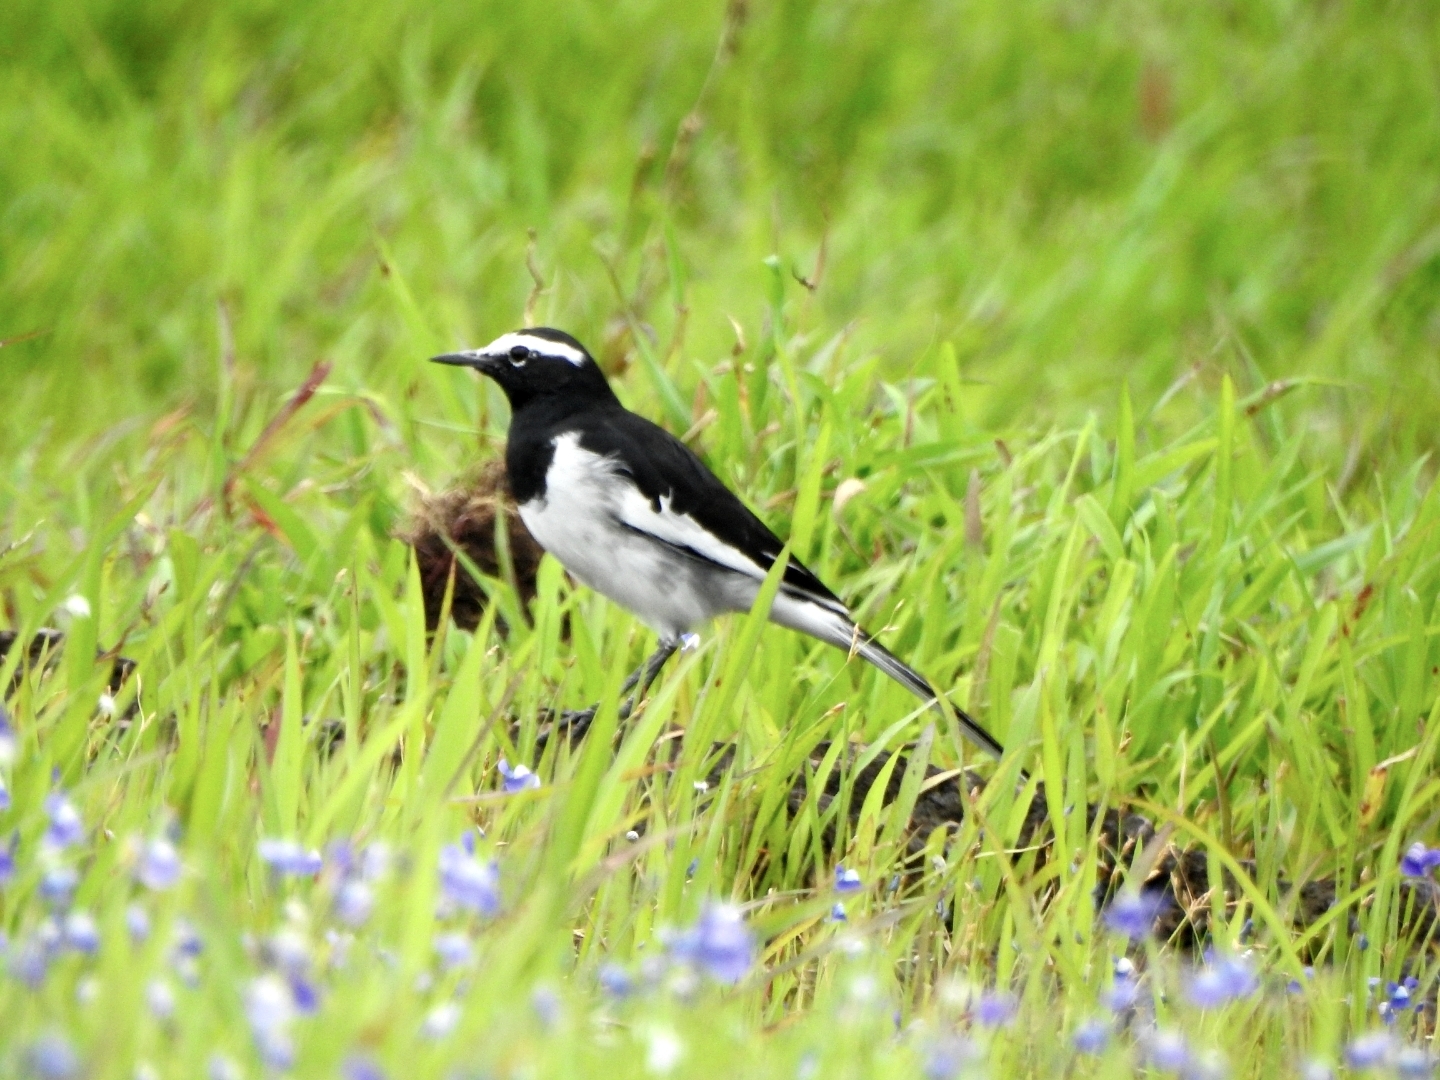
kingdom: Animalia
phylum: Chordata
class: Aves
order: Passeriformes
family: Motacillidae
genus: Motacilla
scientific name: Motacilla maderaspatensis
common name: White-browed wagtail
